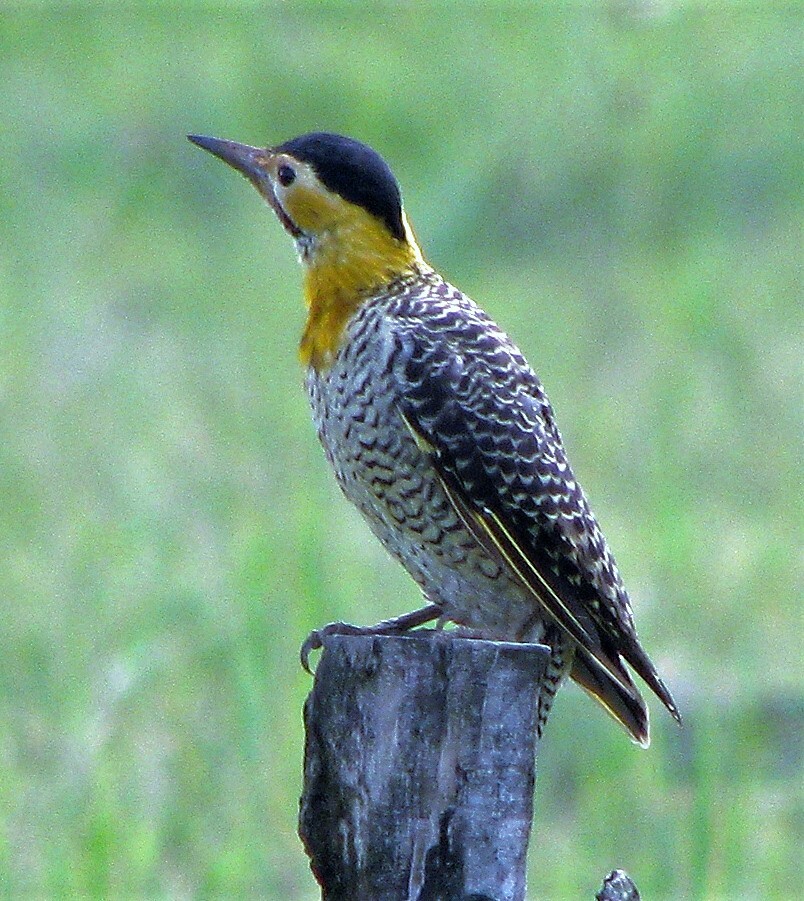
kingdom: Animalia
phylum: Chordata
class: Aves
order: Piciformes
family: Picidae
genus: Colaptes
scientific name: Colaptes campestris
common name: Campo flicker
